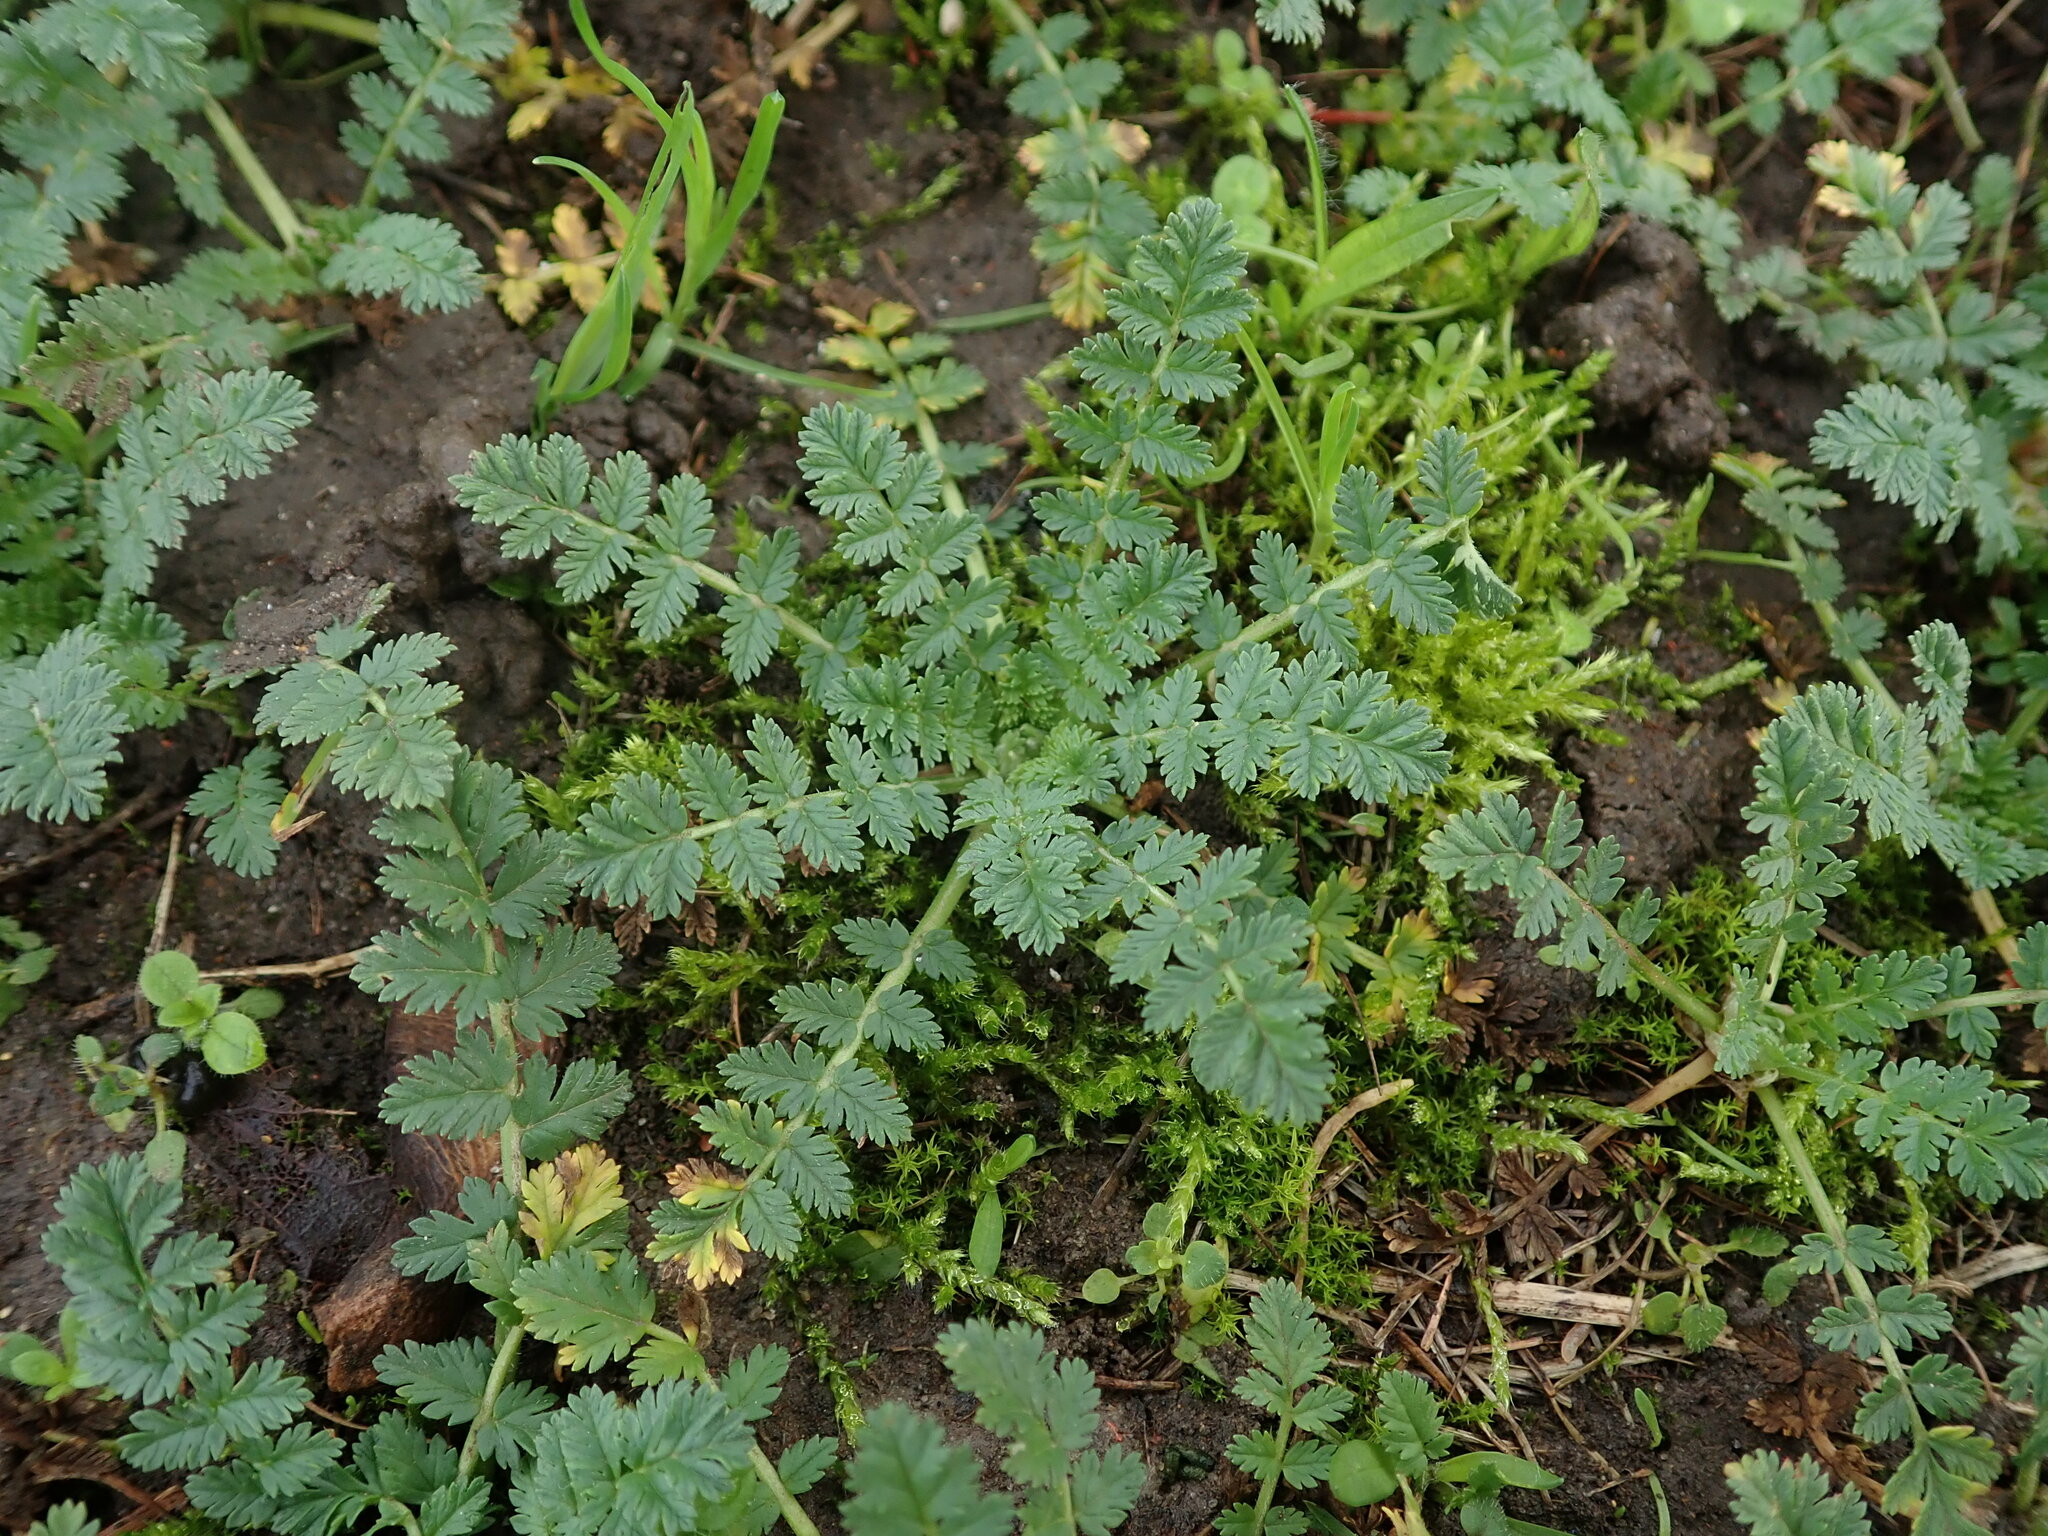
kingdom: Plantae
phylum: Tracheophyta
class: Magnoliopsida
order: Geraniales
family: Geraniaceae
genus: Erodium
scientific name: Erodium cicutarium
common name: Common stork's-bill
